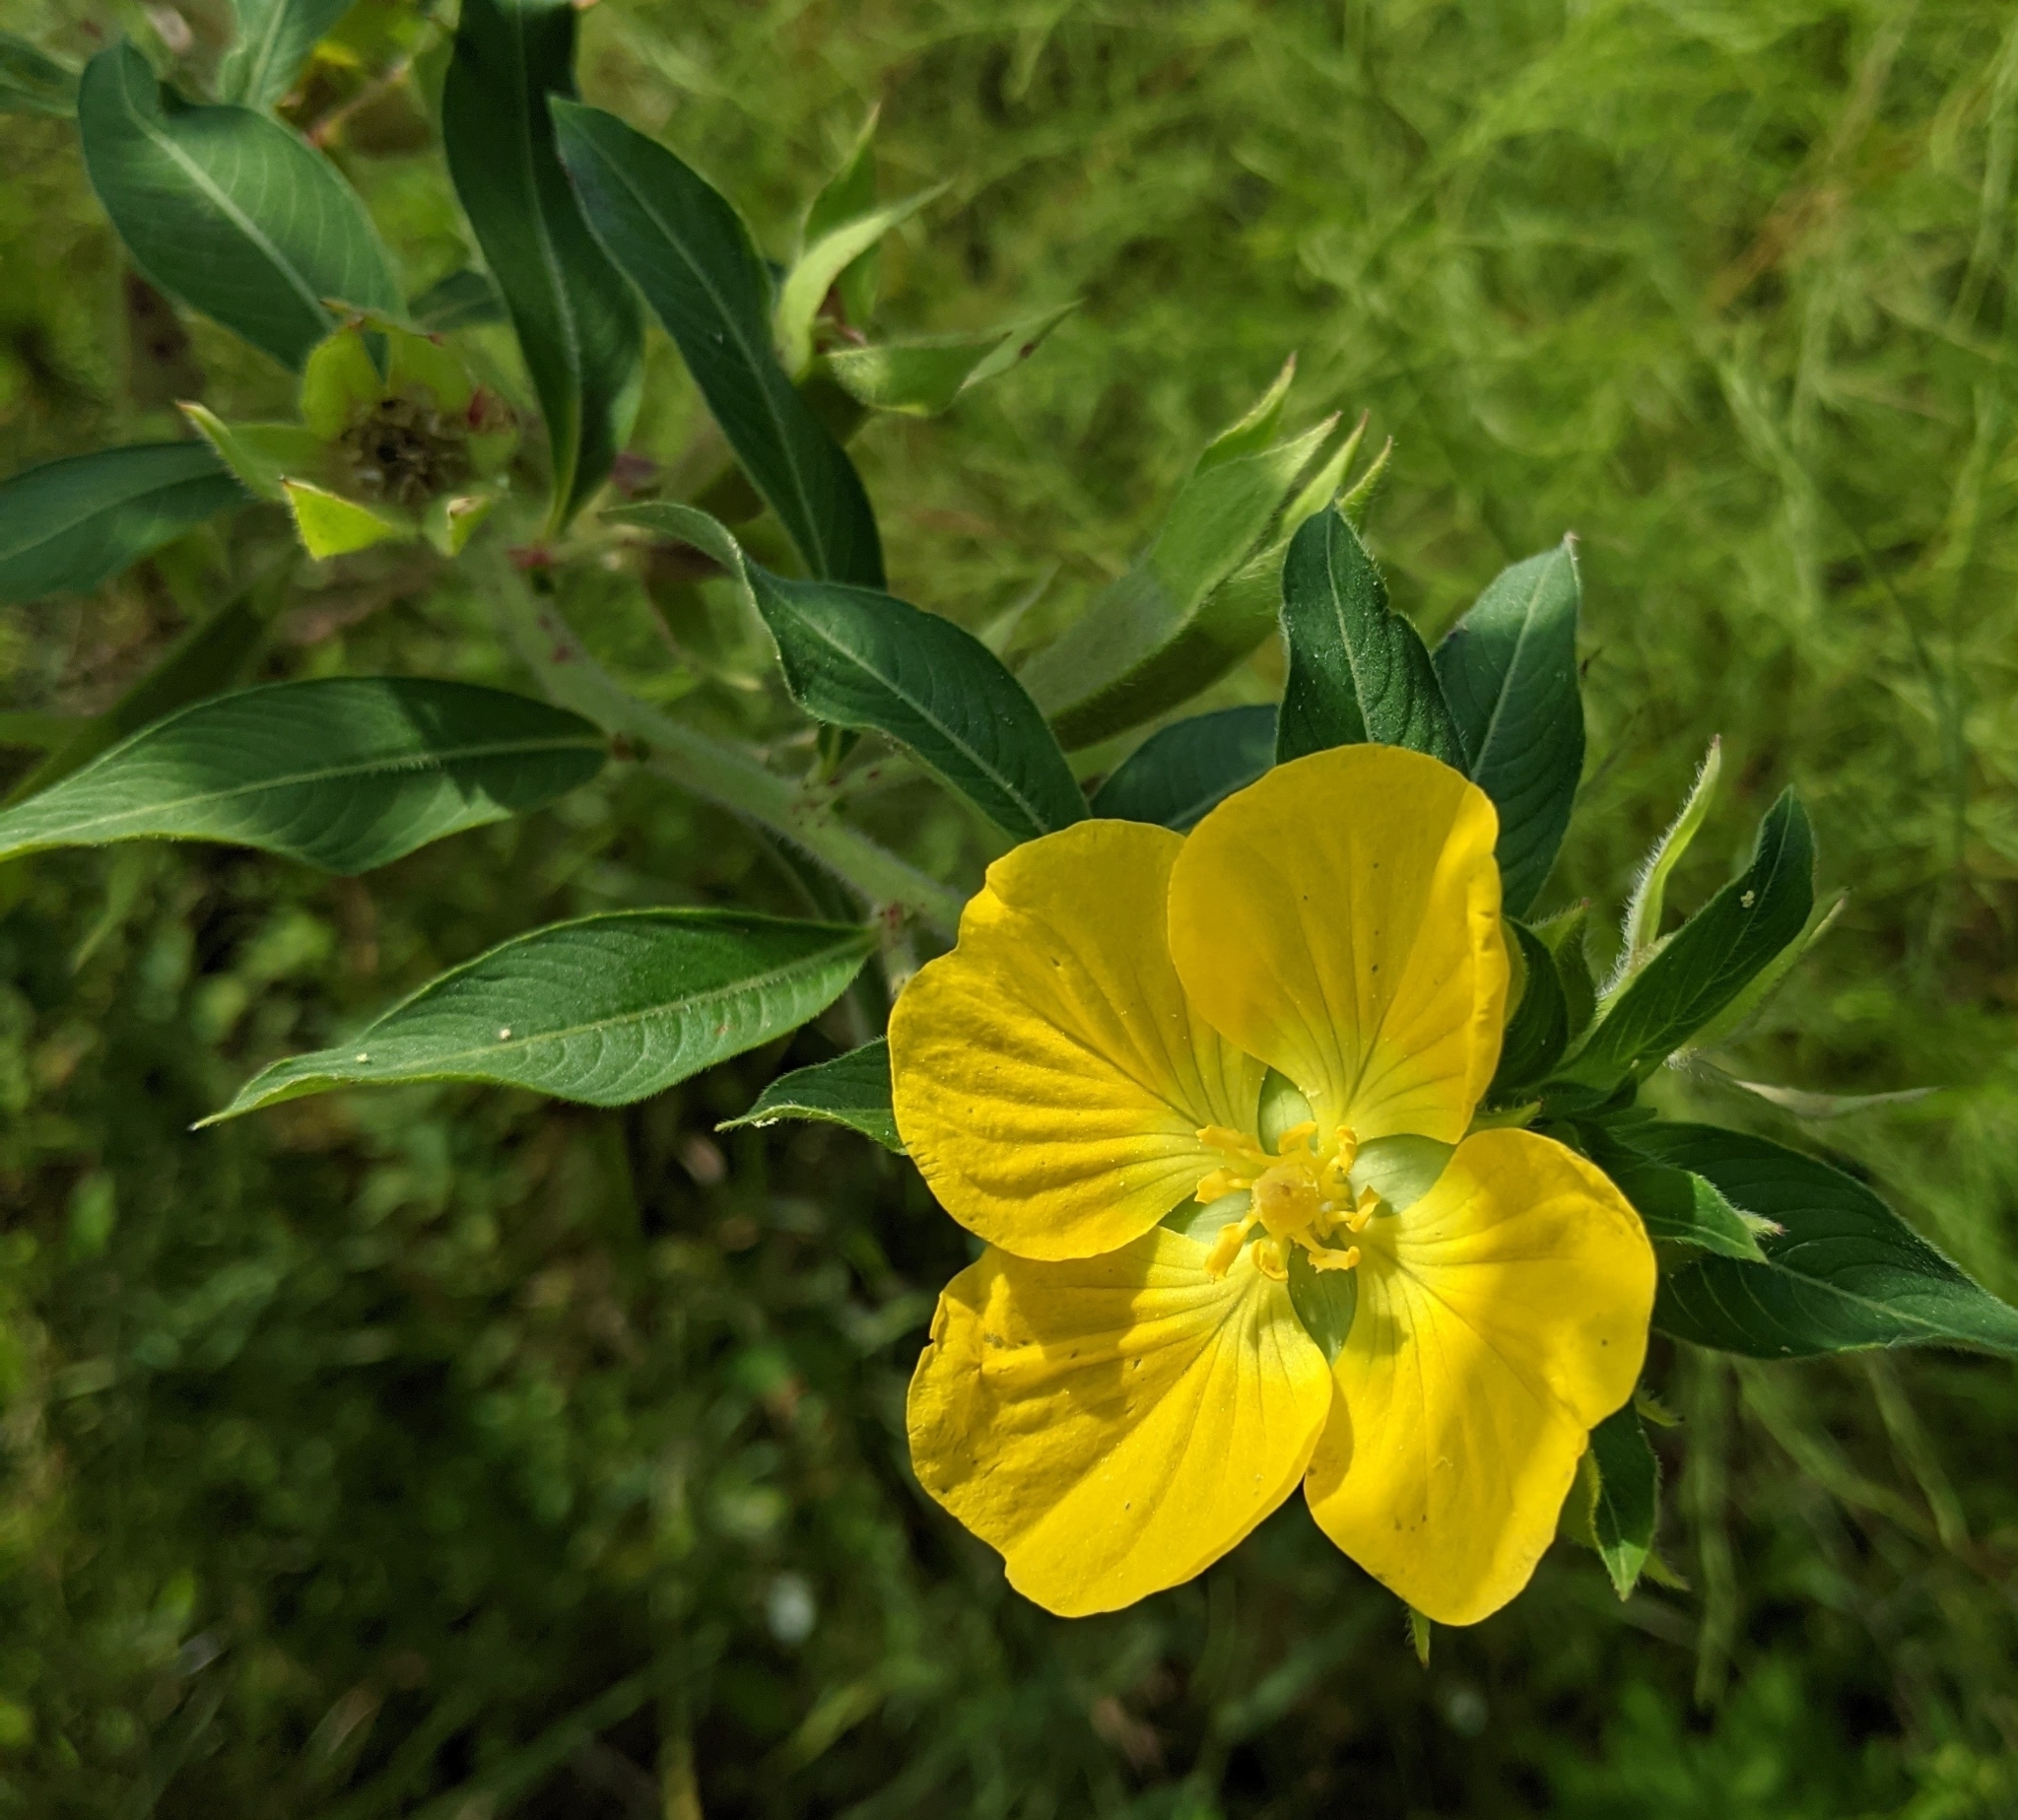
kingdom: Plantae
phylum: Tracheophyta
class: Magnoliopsida
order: Myrtales
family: Onagraceae
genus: Ludwigia
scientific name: Ludwigia peruviana
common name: Peruvian primrose-willow
